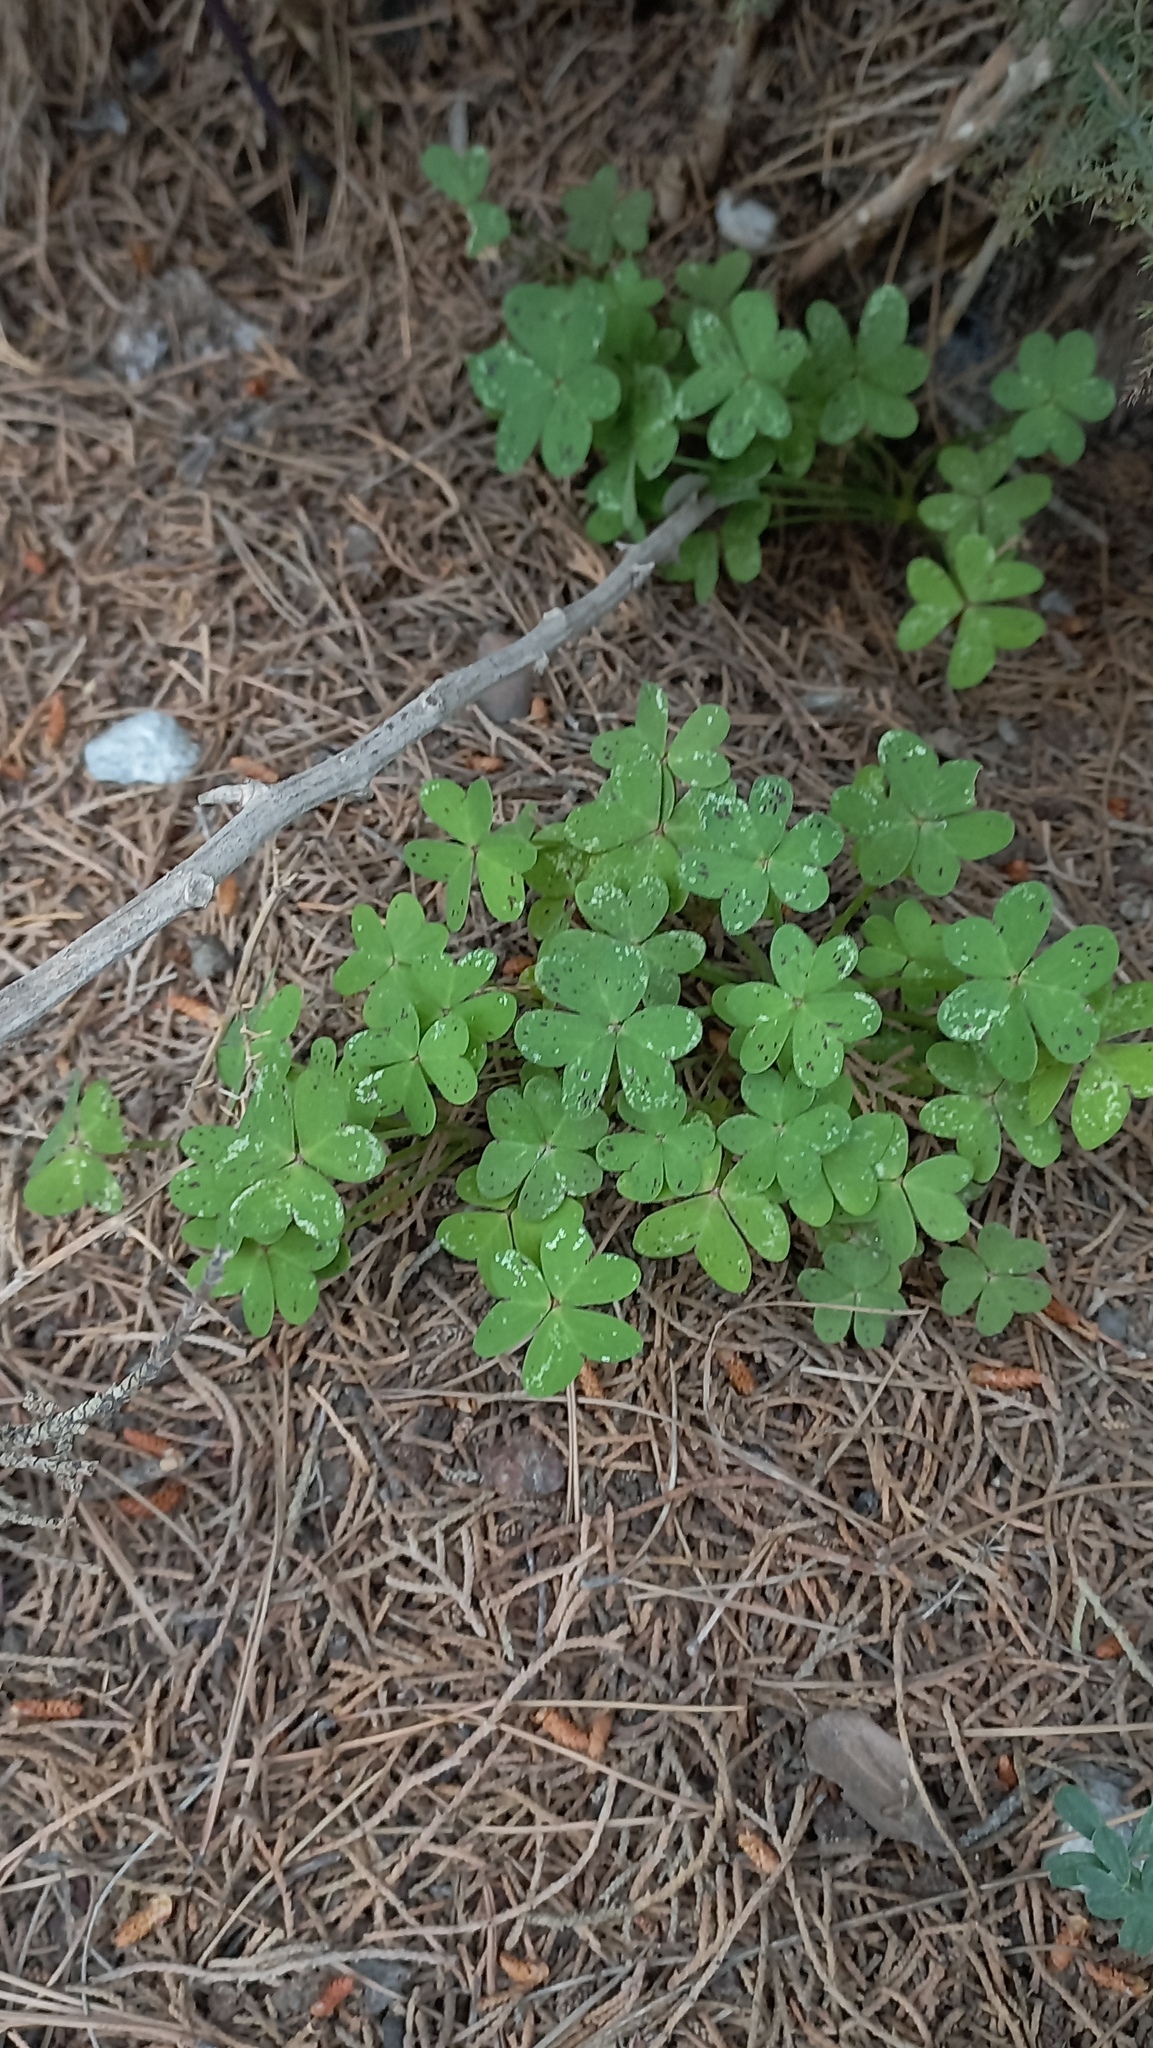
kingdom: Plantae
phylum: Tracheophyta
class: Magnoliopsida
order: Oxalidales
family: Oxalidaceae
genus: Oxalis
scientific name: Oxalis pes-caprae
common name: Bermuda-buttercup
